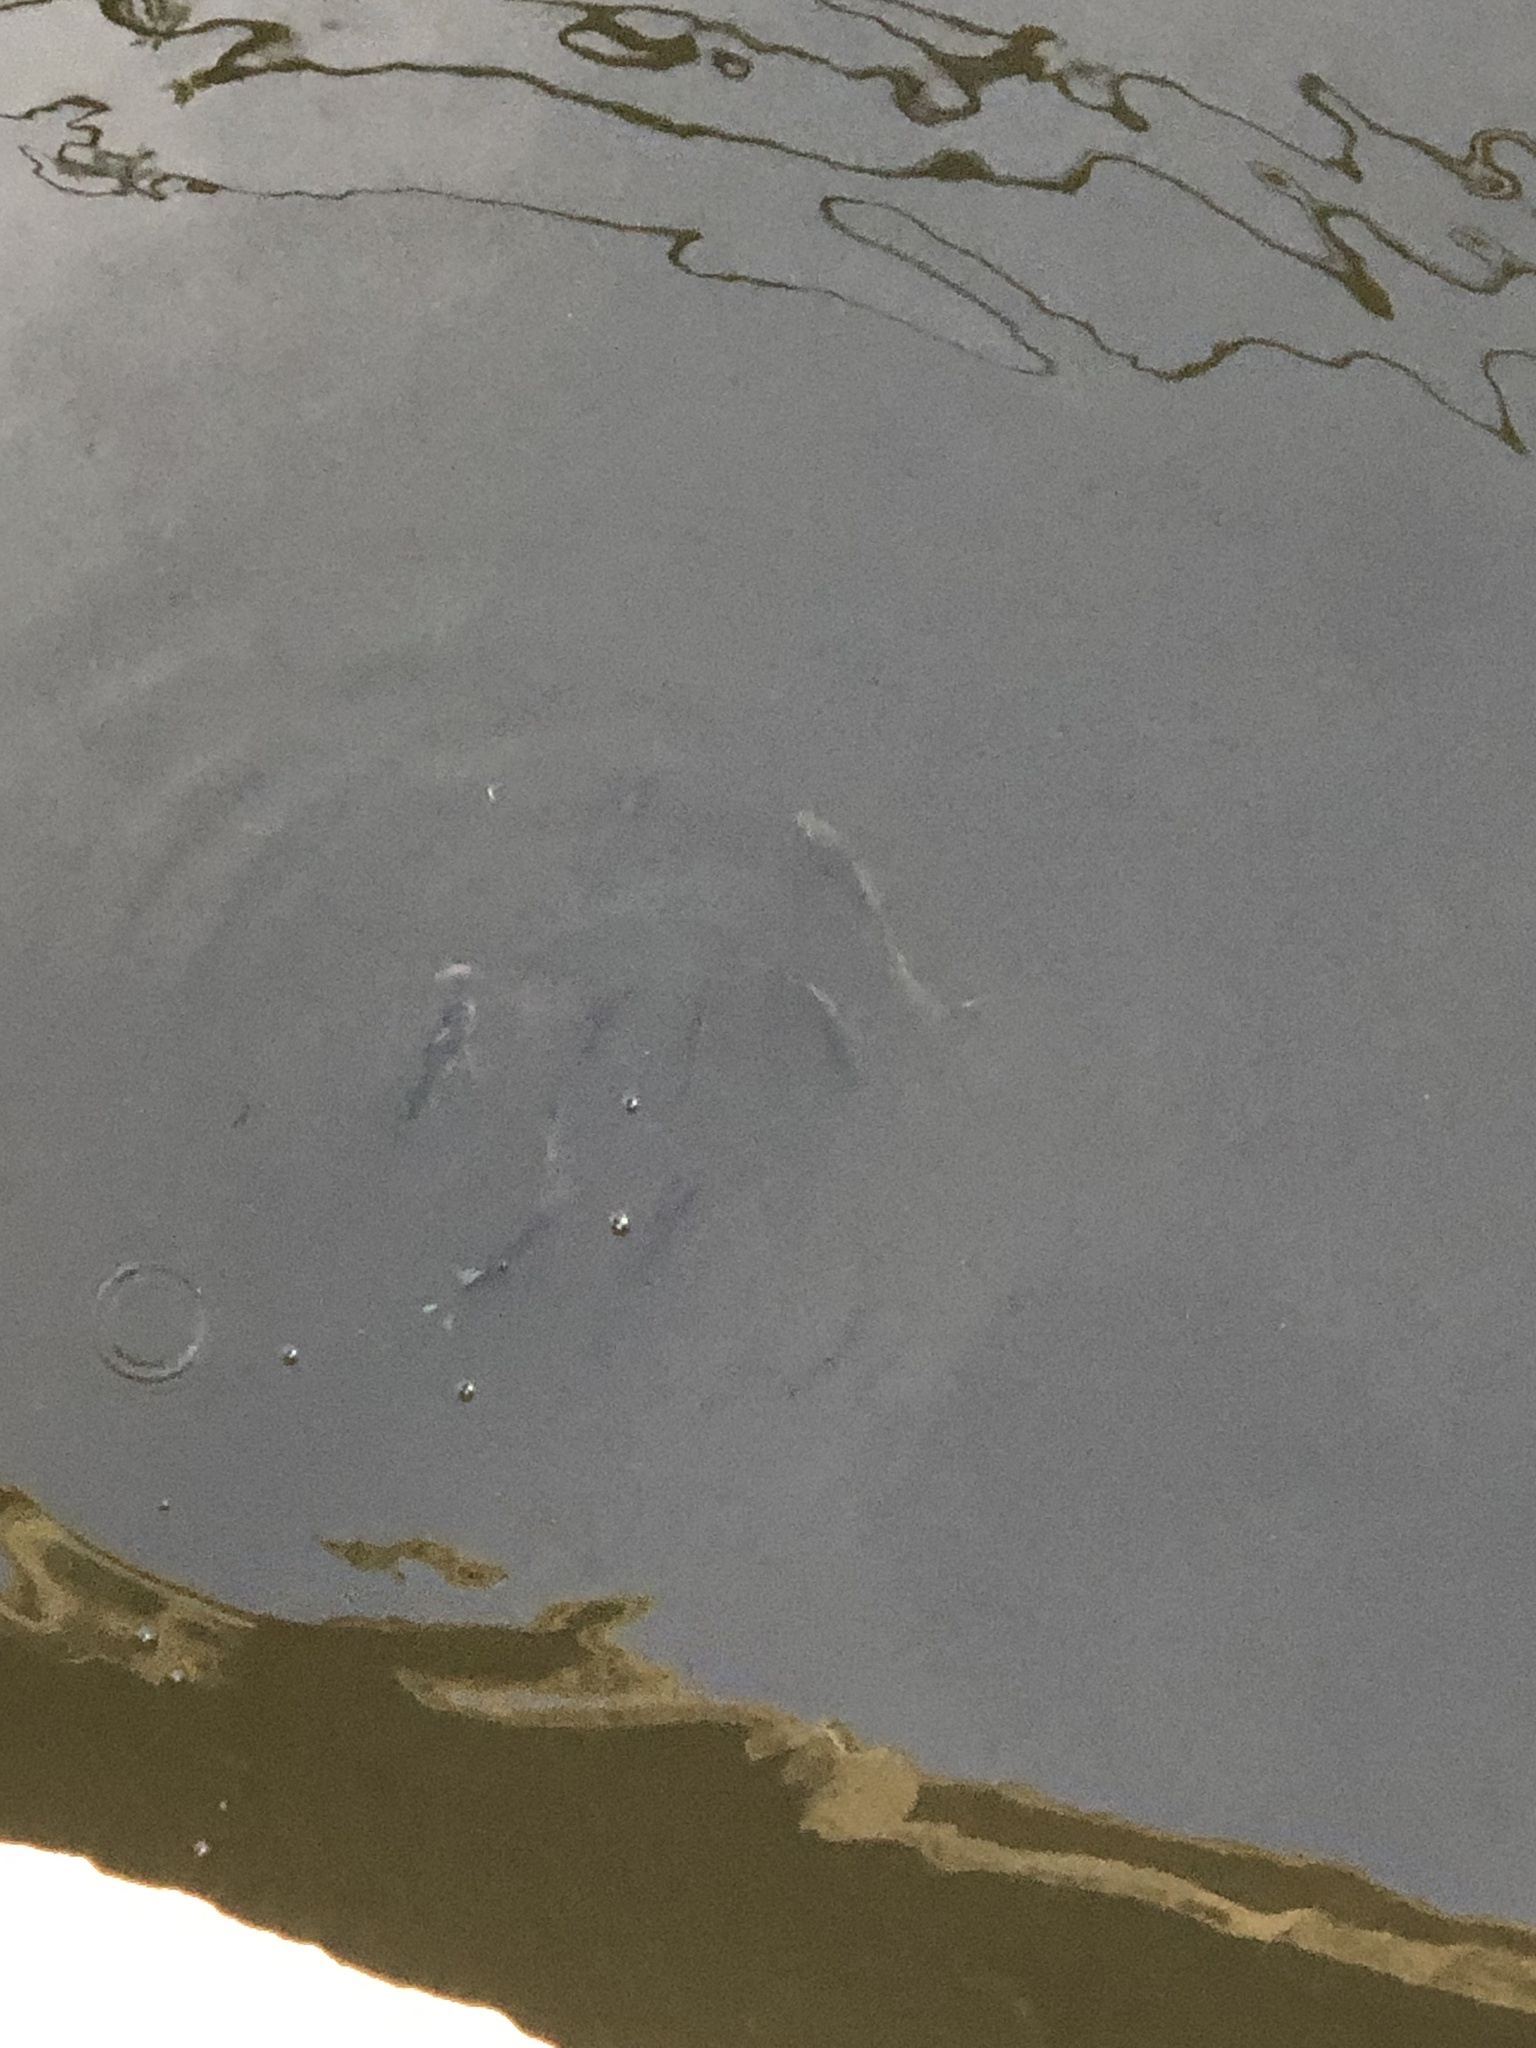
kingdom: Animalia
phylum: Chordata
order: Perciformes
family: Centrarchidae
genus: Lepomis
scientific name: Lepomis macrochirus
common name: Bluegill
